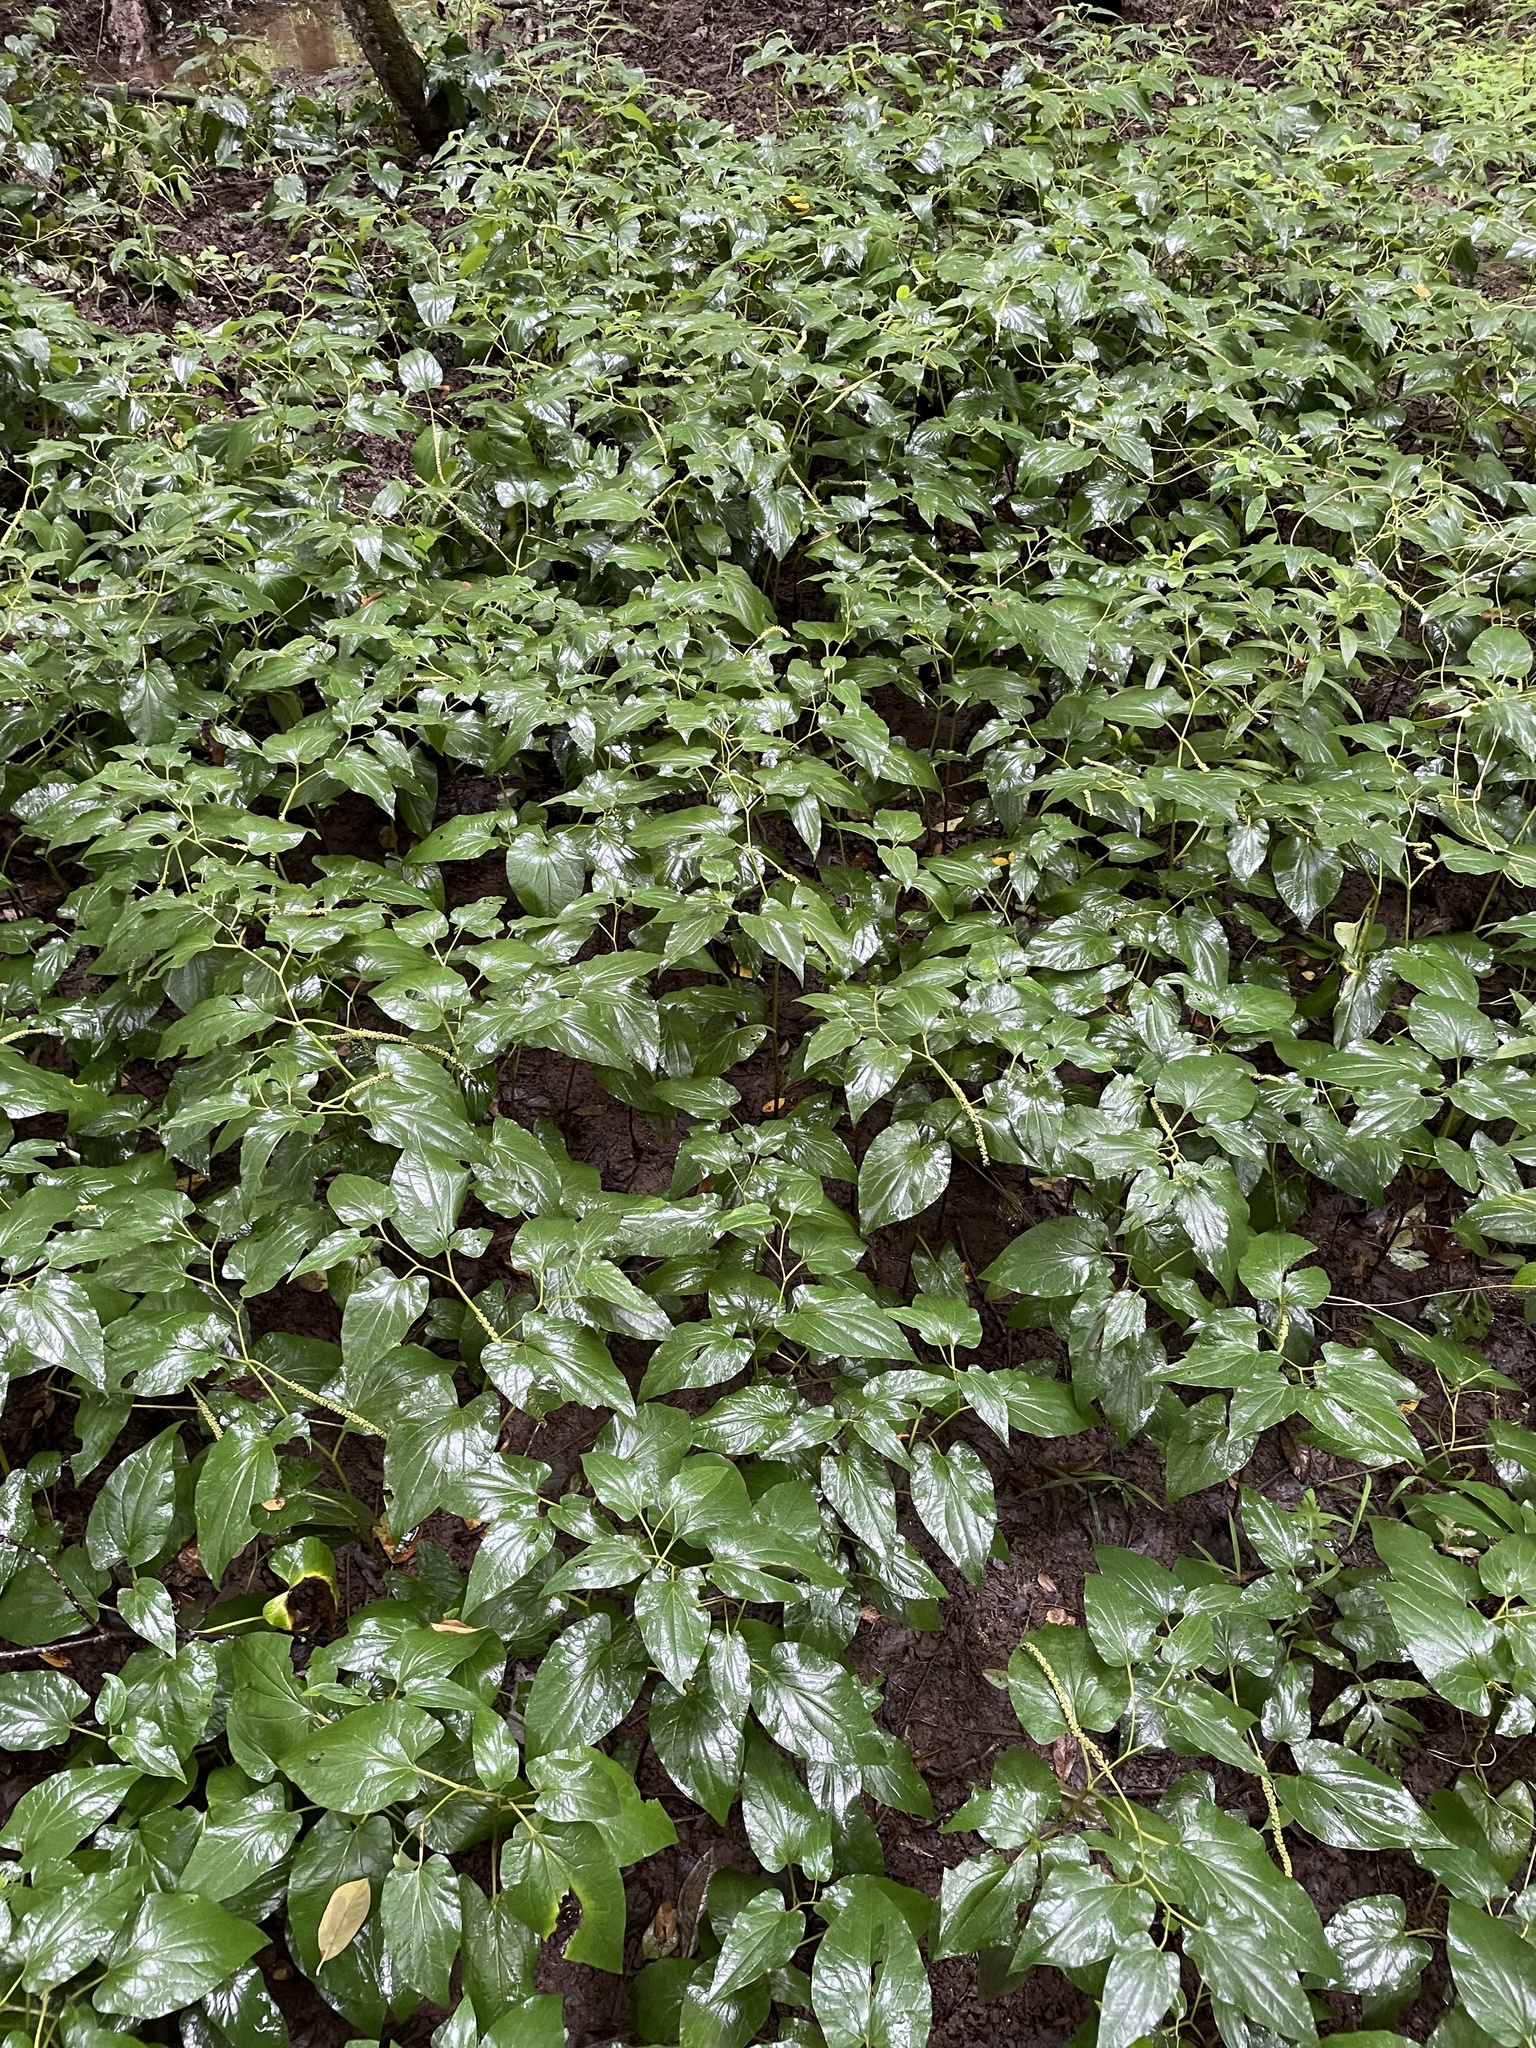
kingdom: Plantae
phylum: Tracheophyta
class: Magnoliopsida
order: Piperales
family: Saururaceae
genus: Saururus
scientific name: Saururus cernuus
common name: Lizard's-tail
